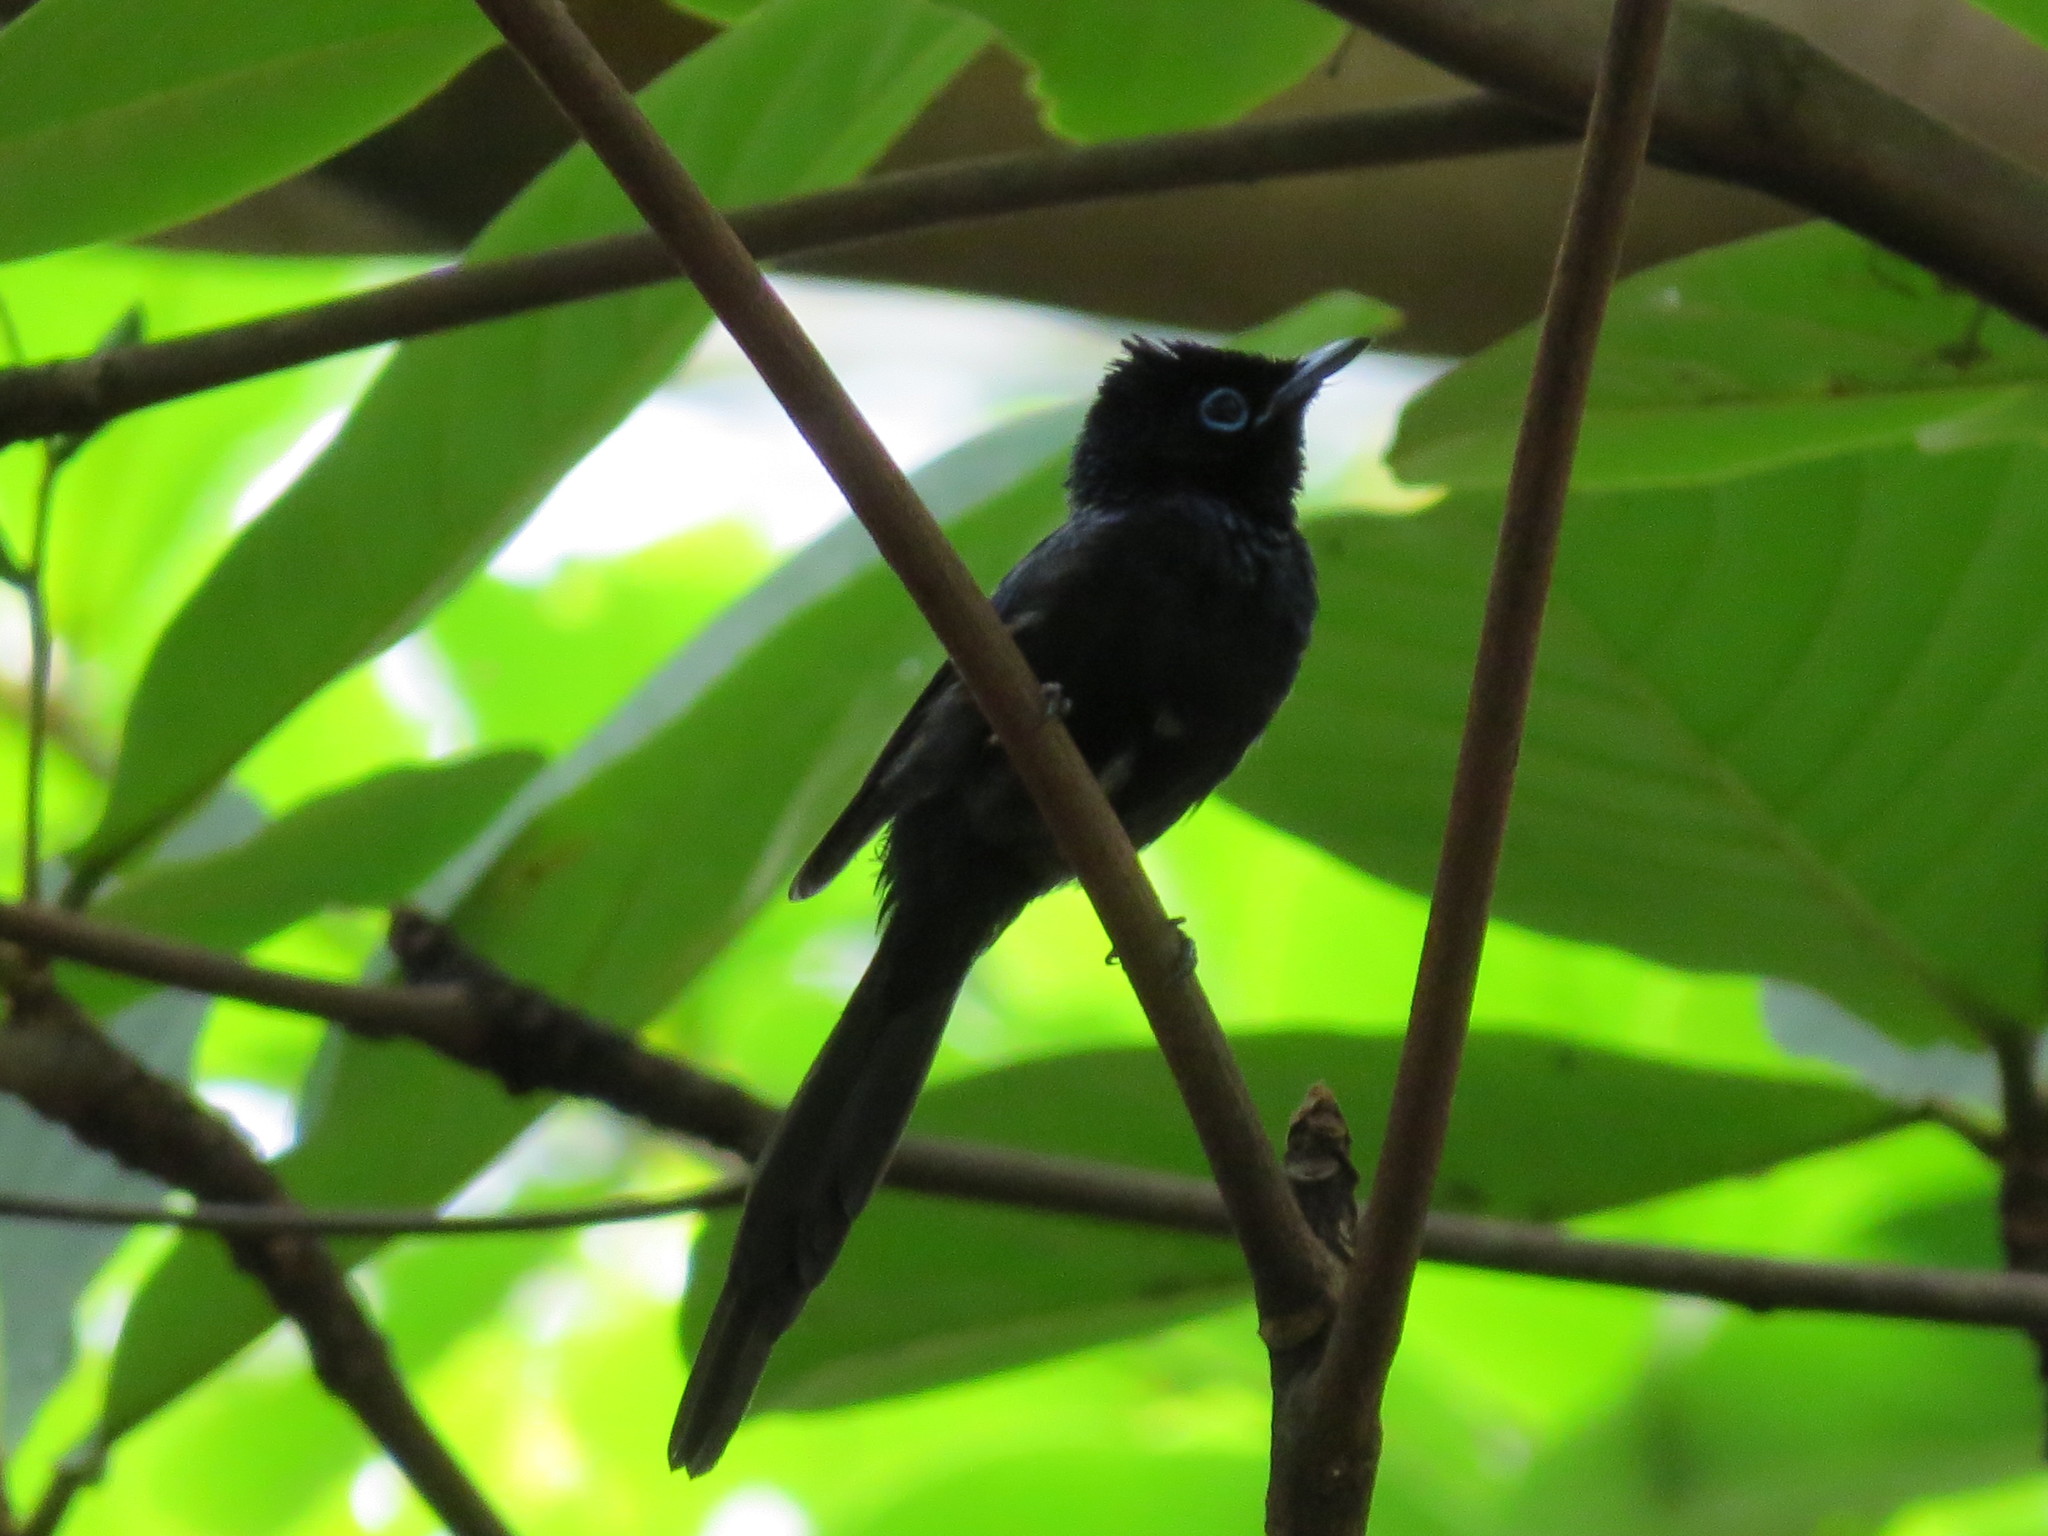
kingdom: Animalia
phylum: Chordata
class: Aves
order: Passeriformes
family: Monarchidae
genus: Terpsiphone
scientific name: Terpsiphone atrochalybeia
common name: Sao tome paradise flycatcher
